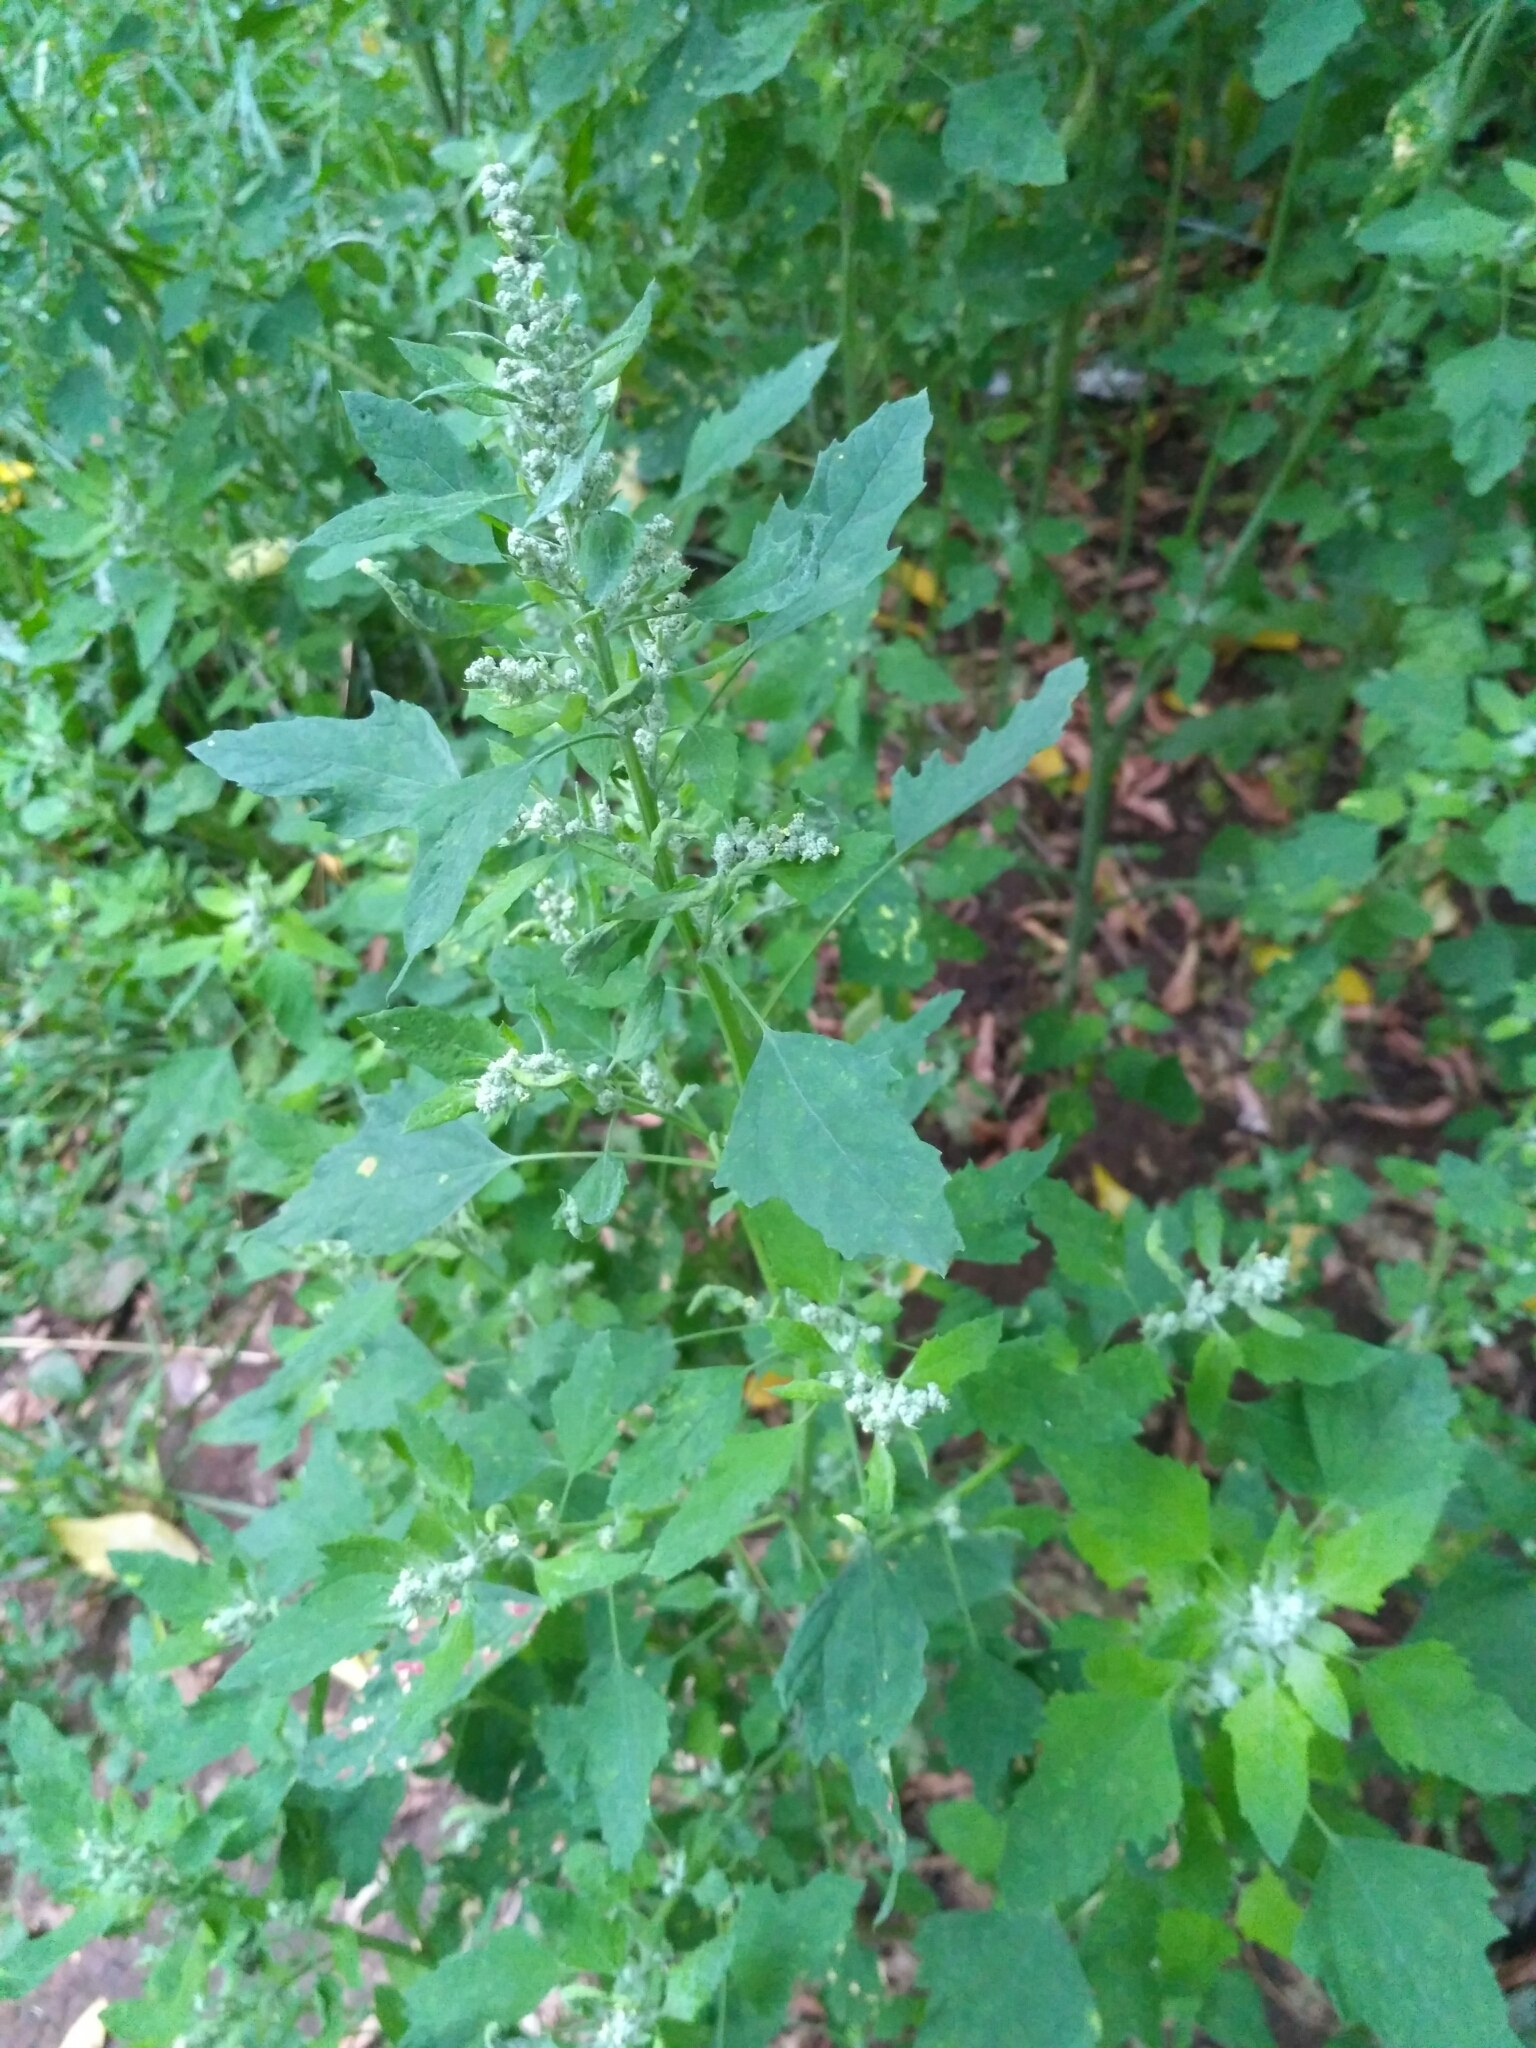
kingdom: Plantae
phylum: Tracheophyta
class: Magnoliopsida
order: Caryophyllales
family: Amaranthaceae
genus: Chenopodium
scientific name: Chenopodium album
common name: Fat-hen
